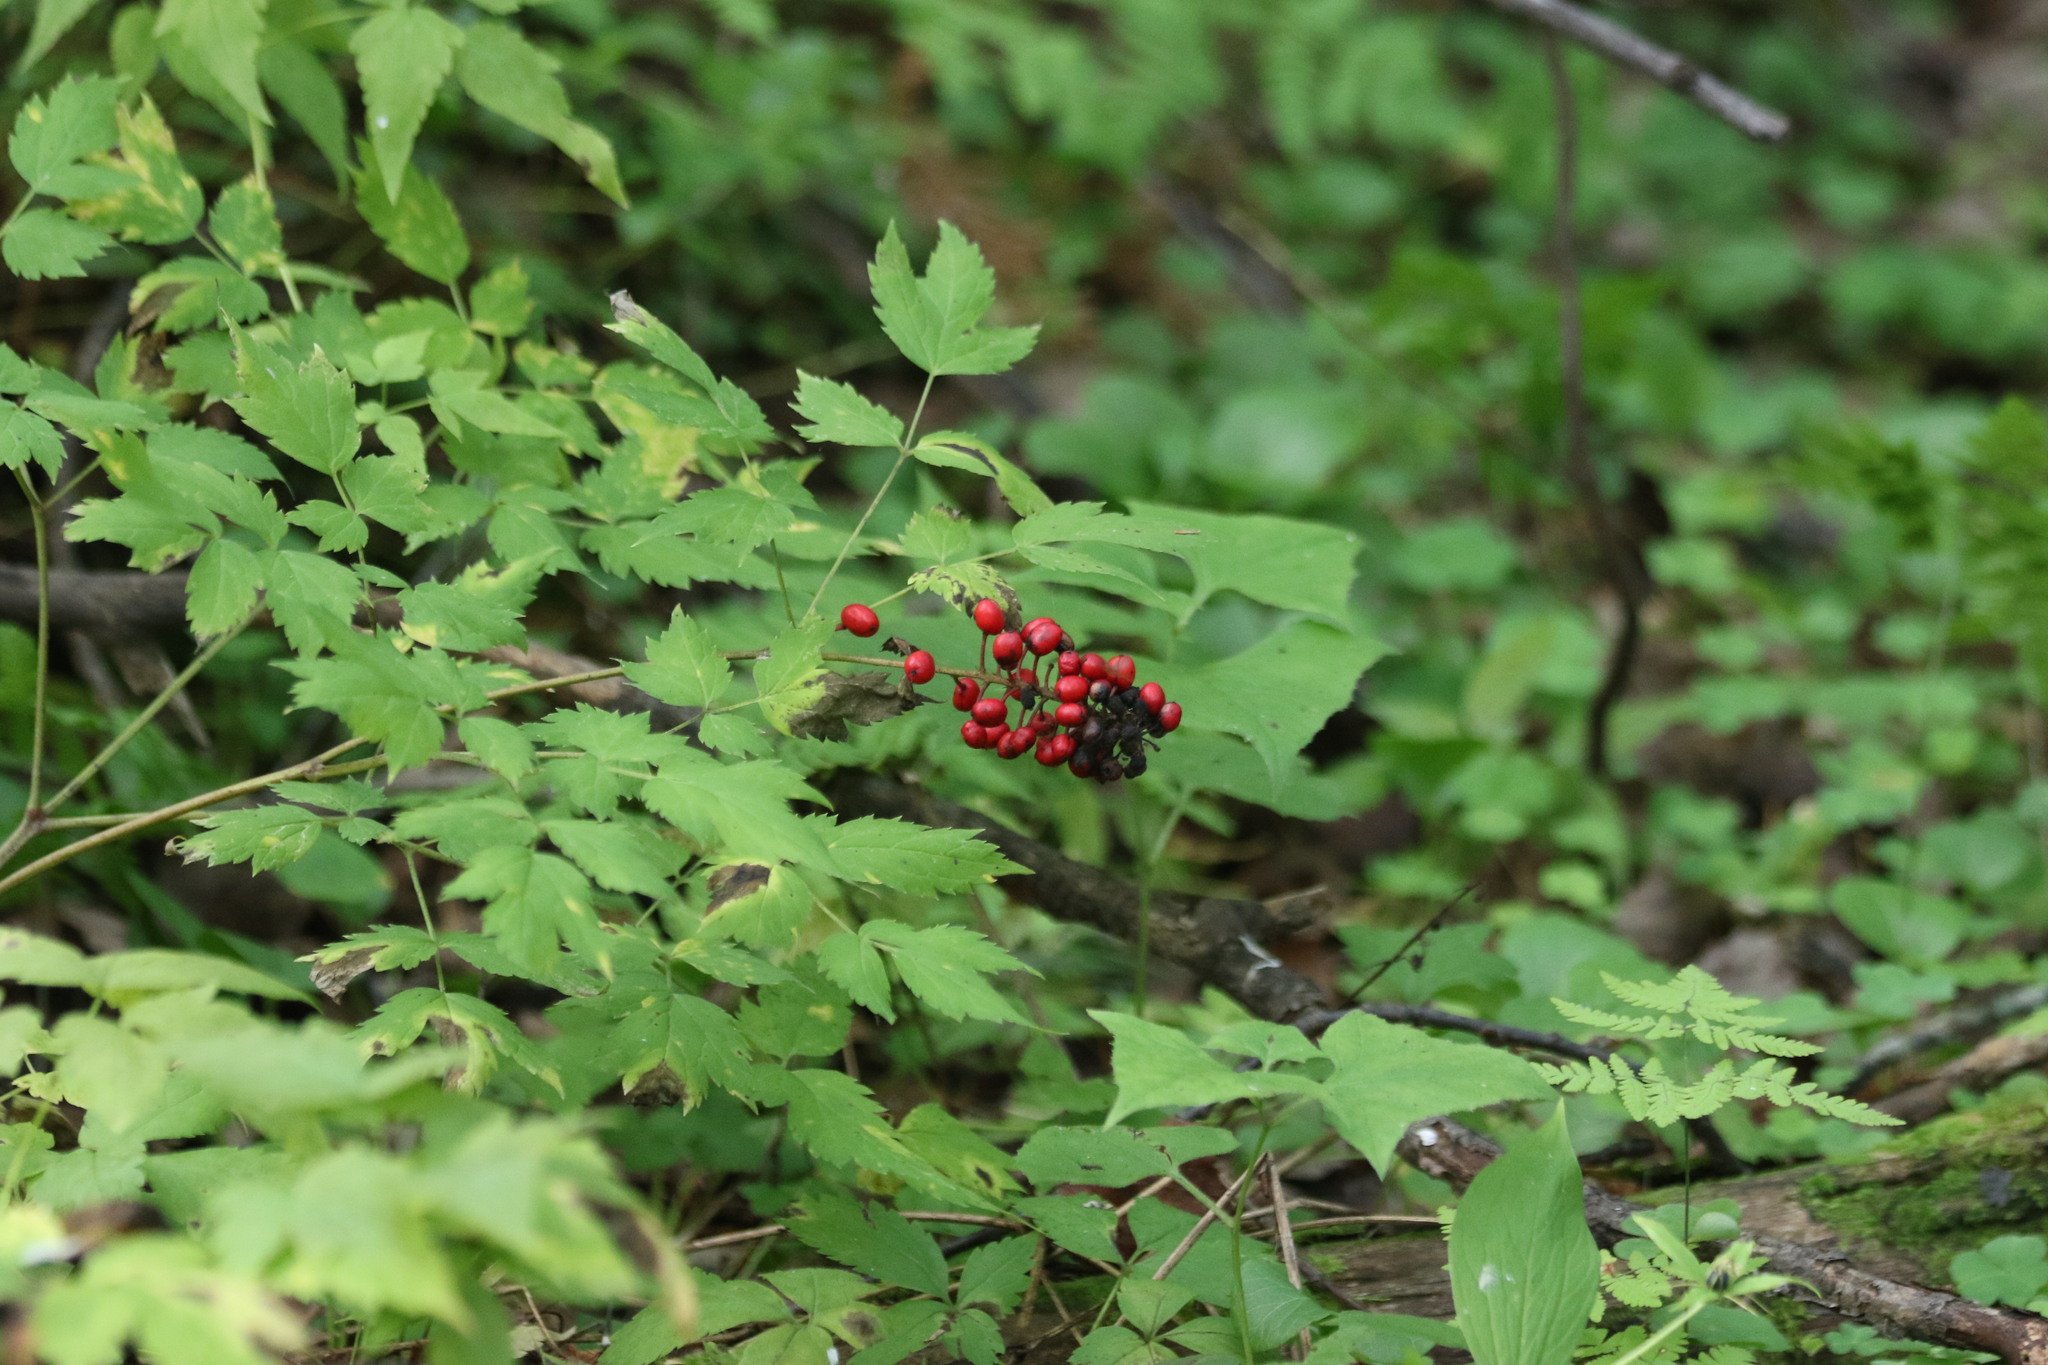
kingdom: Plantae
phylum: Tracheophyta
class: Magnoliopsida
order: Ranunculales
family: Ranunculaceae
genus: Actaea
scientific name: Actaea erythrocarpa
